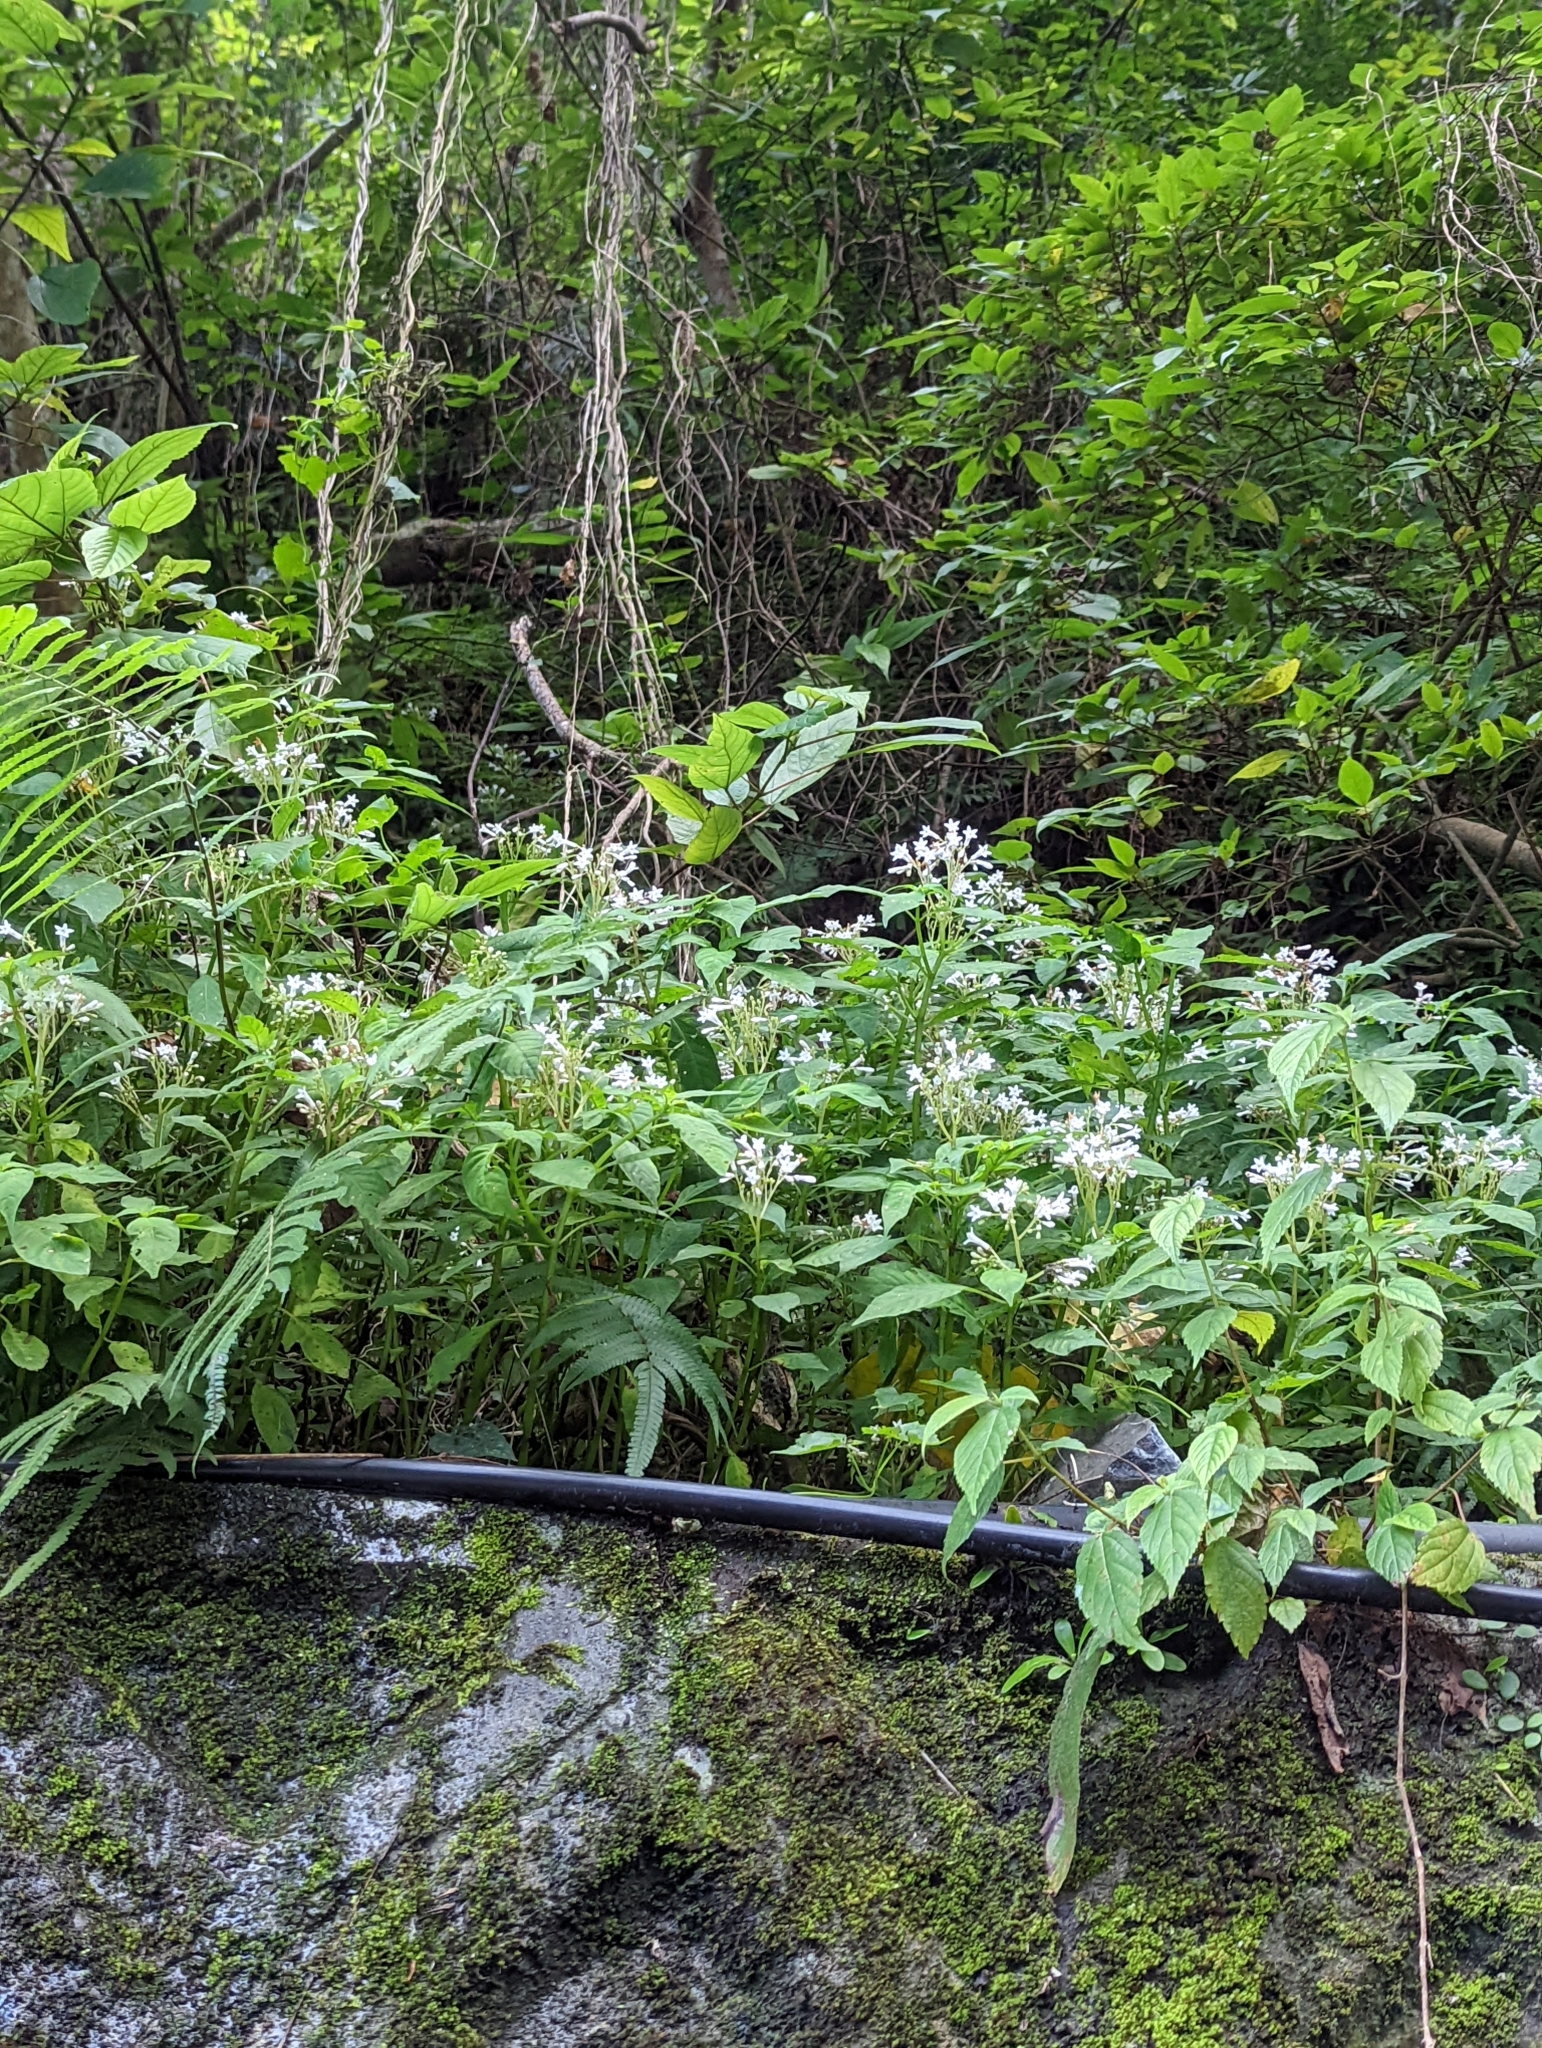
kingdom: Plantae
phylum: Tracheophyta
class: Magnoliopsida
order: Gentianales
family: Rubiaceae
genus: Ophiorrhiza
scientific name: Ophiorrhiza japonica
